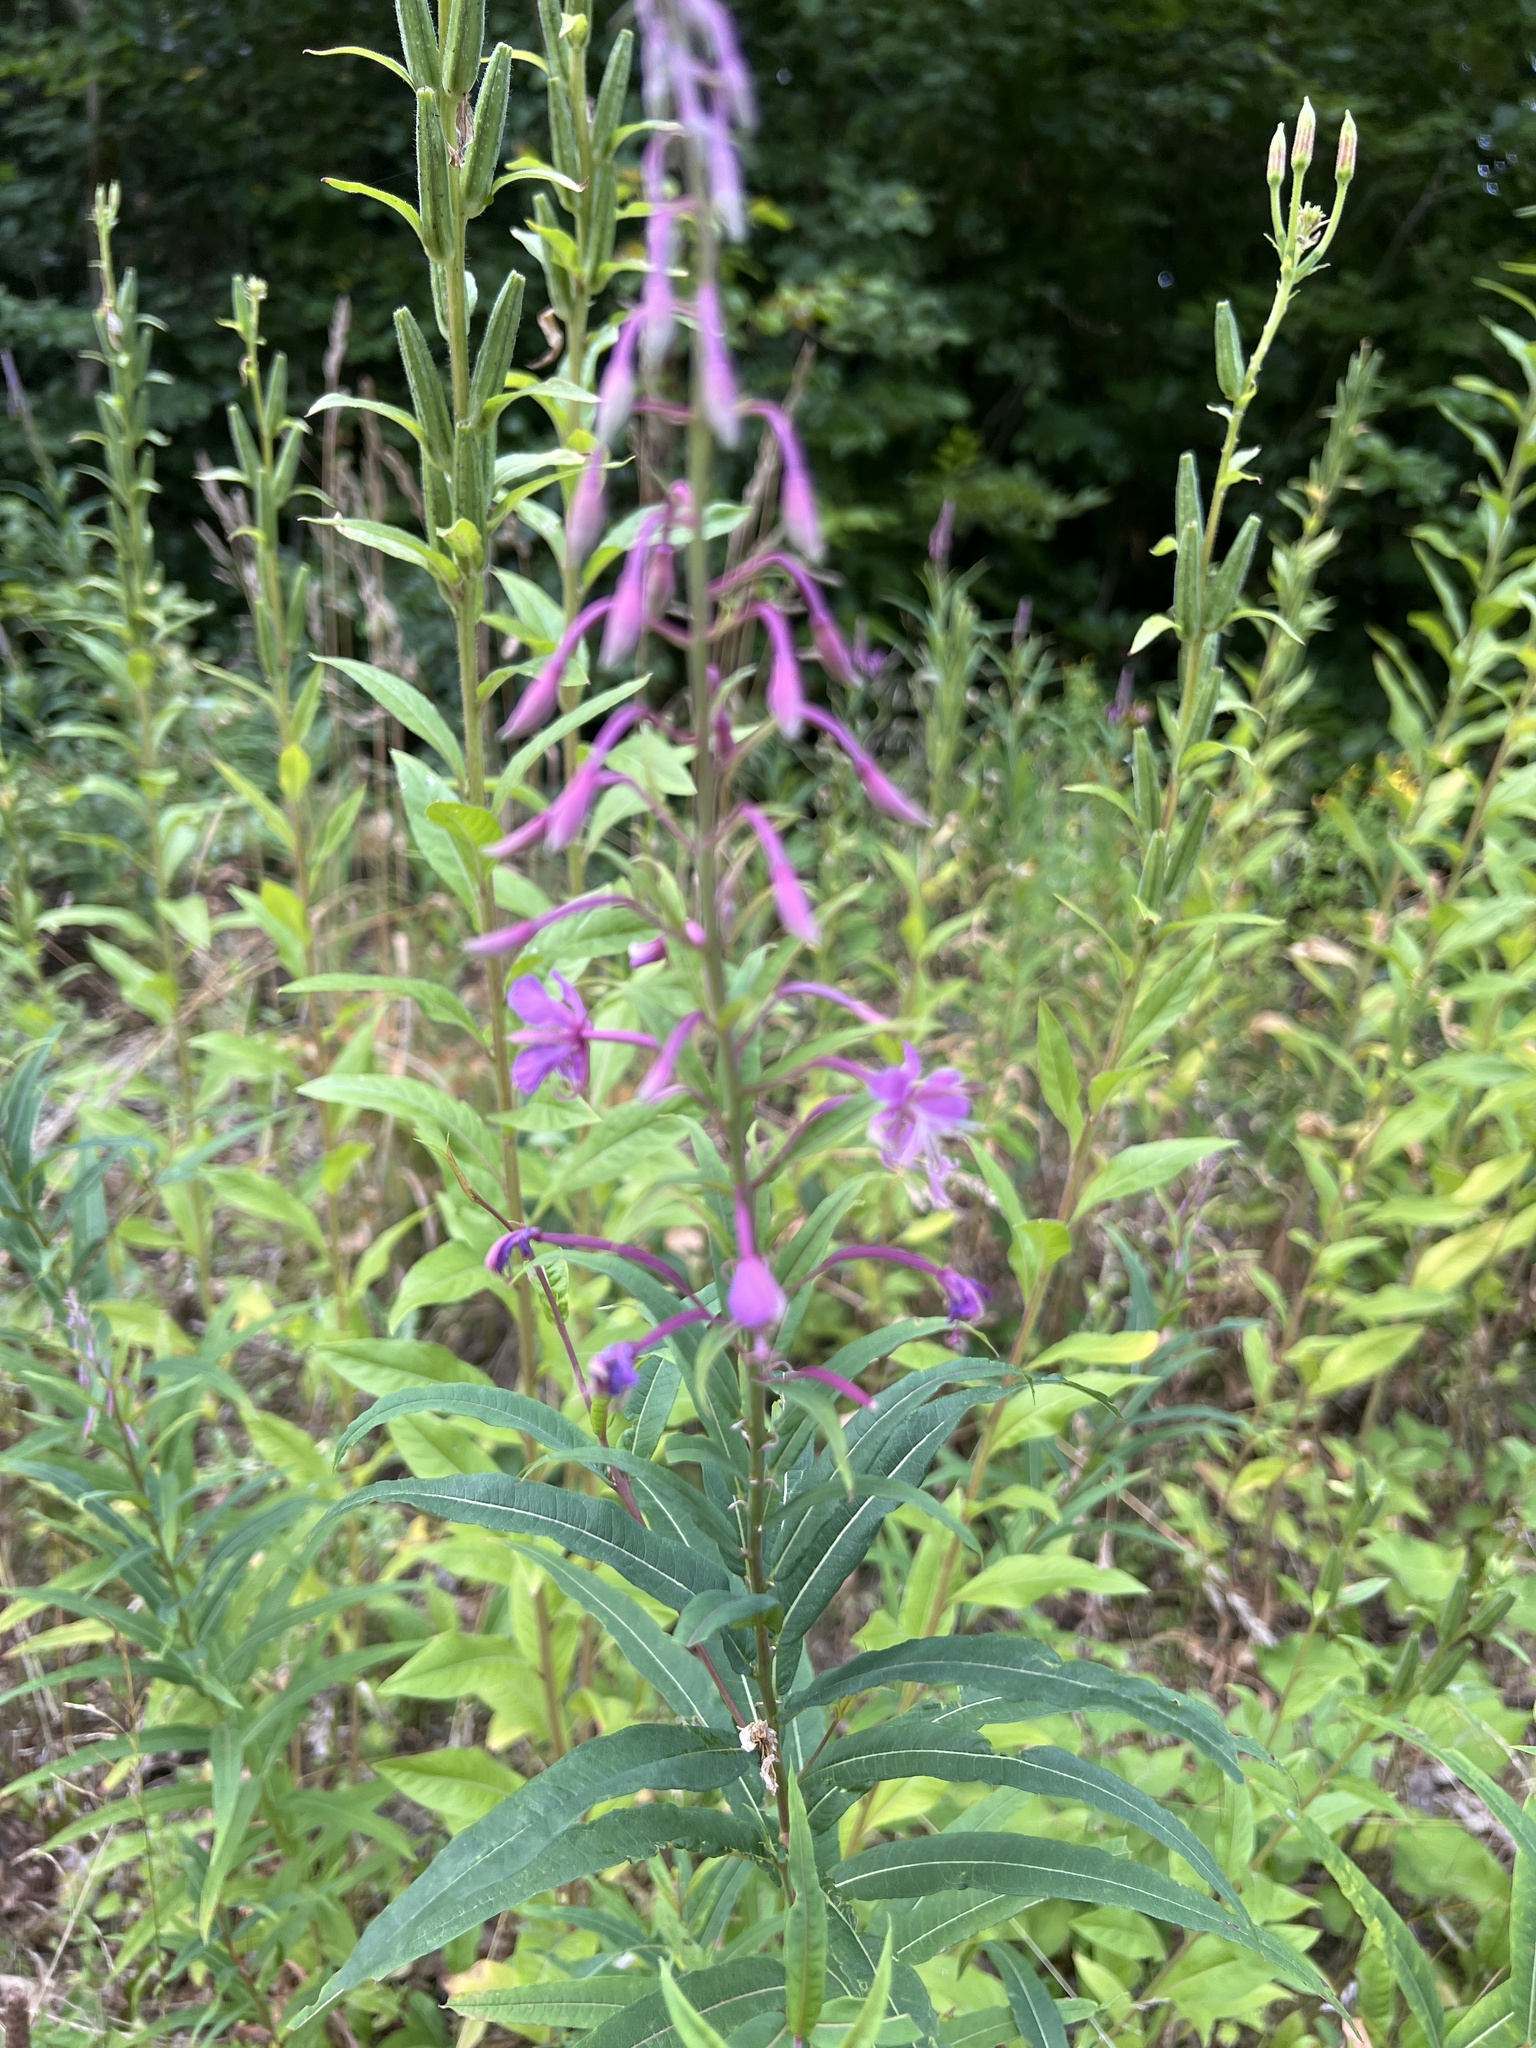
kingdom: Plantae
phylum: Tracheophyta
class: Magnoliopsida
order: Myrtales
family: Onagraceae
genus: Chamaenerion
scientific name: Chamaenerion angustifolium
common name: Fireweed
